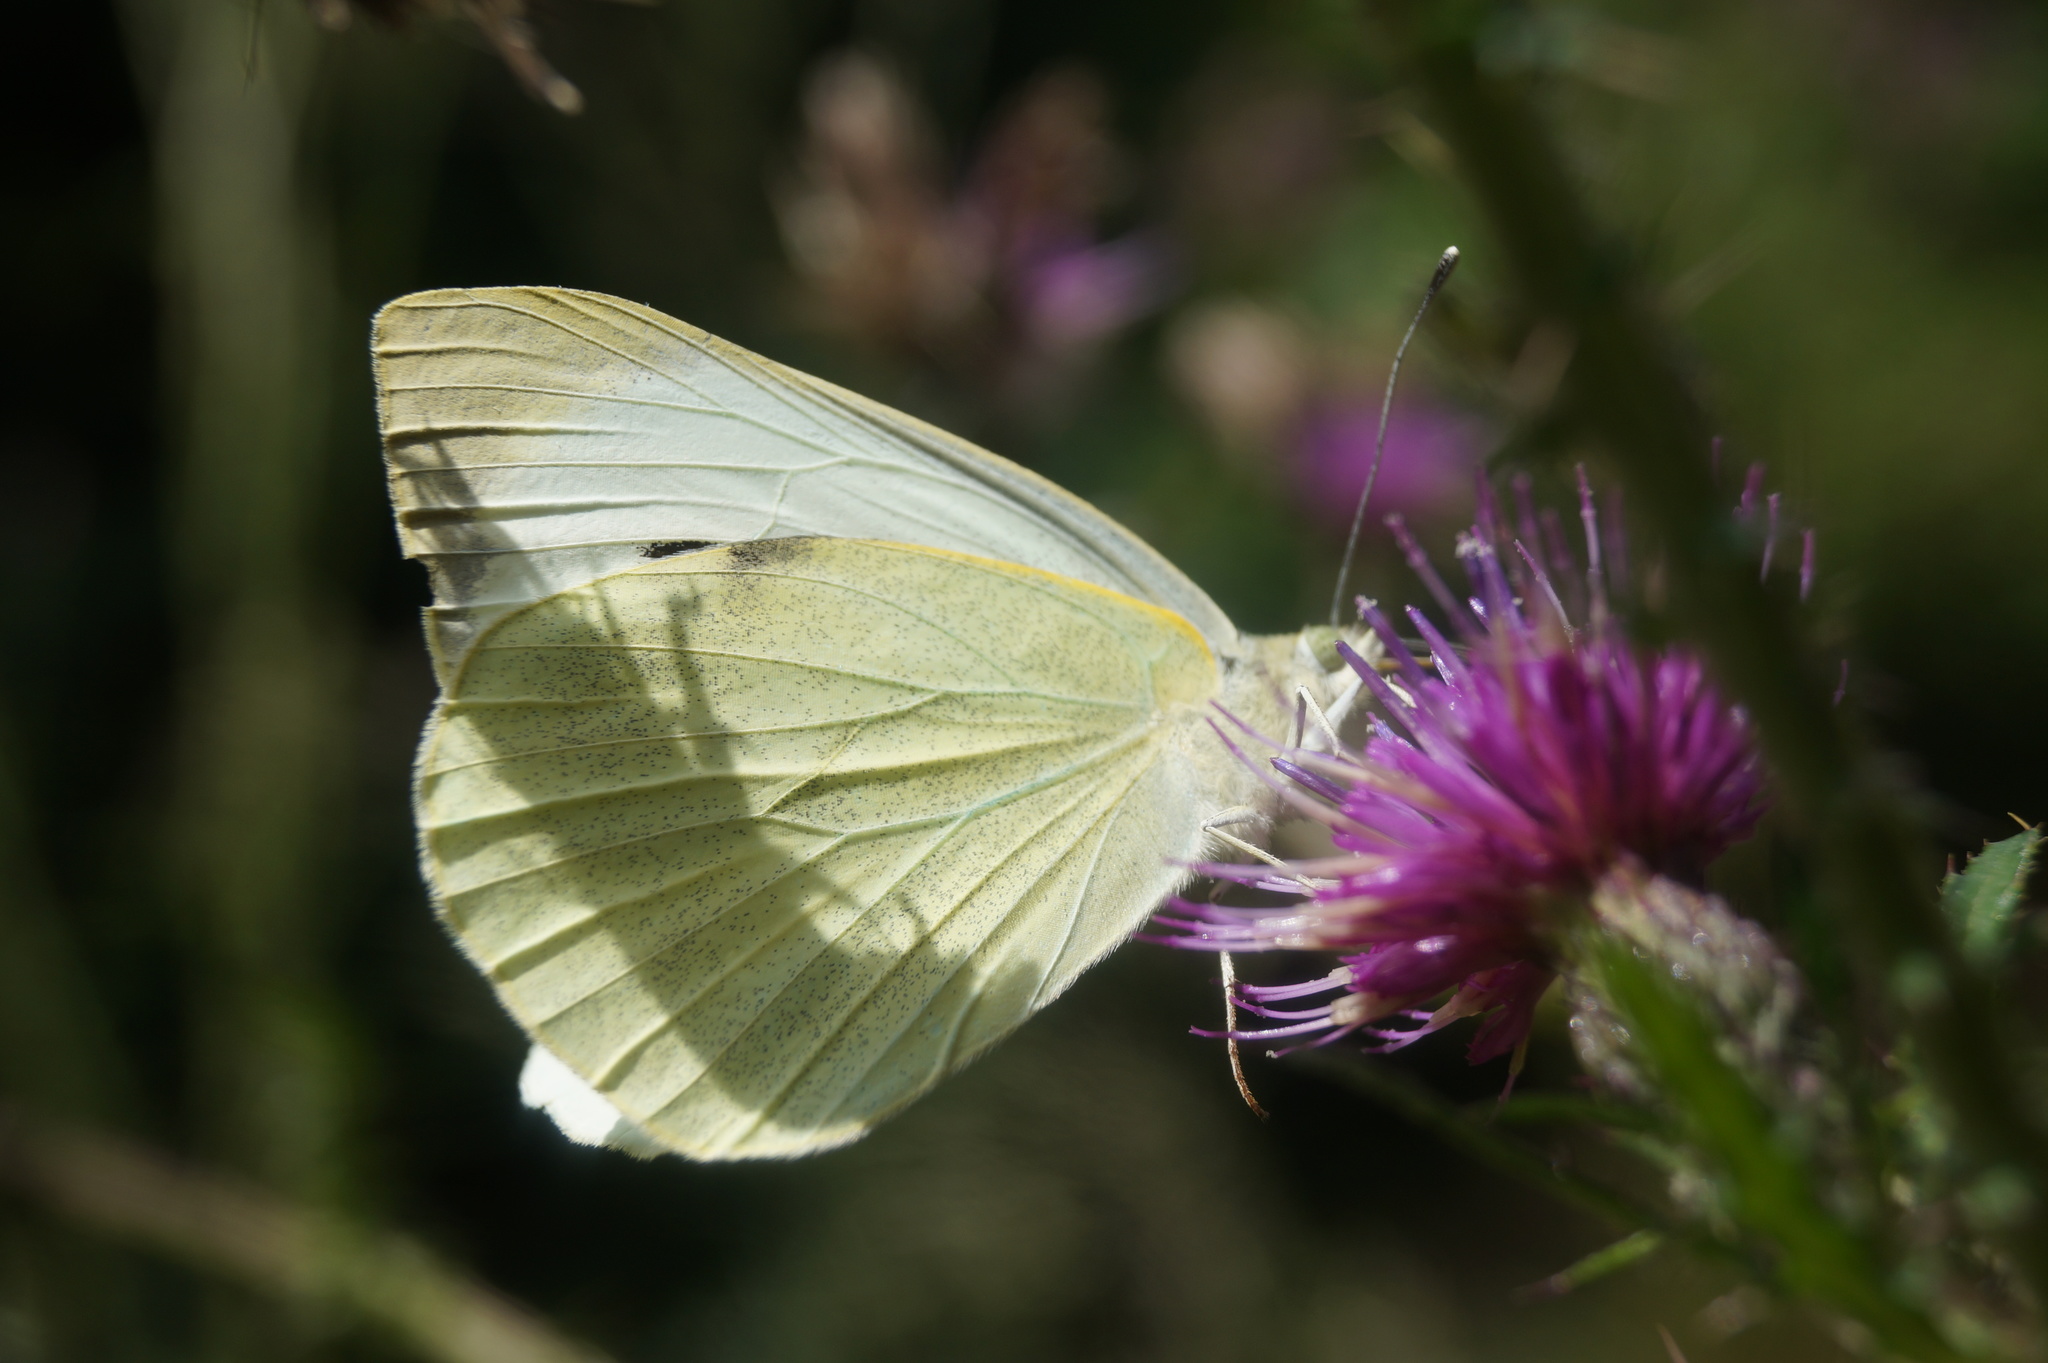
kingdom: Animalia
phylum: Arthropoda
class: Insecta
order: Lepidoptera
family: Pieridae
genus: Pieris
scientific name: Pieris brassicae
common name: Large white
